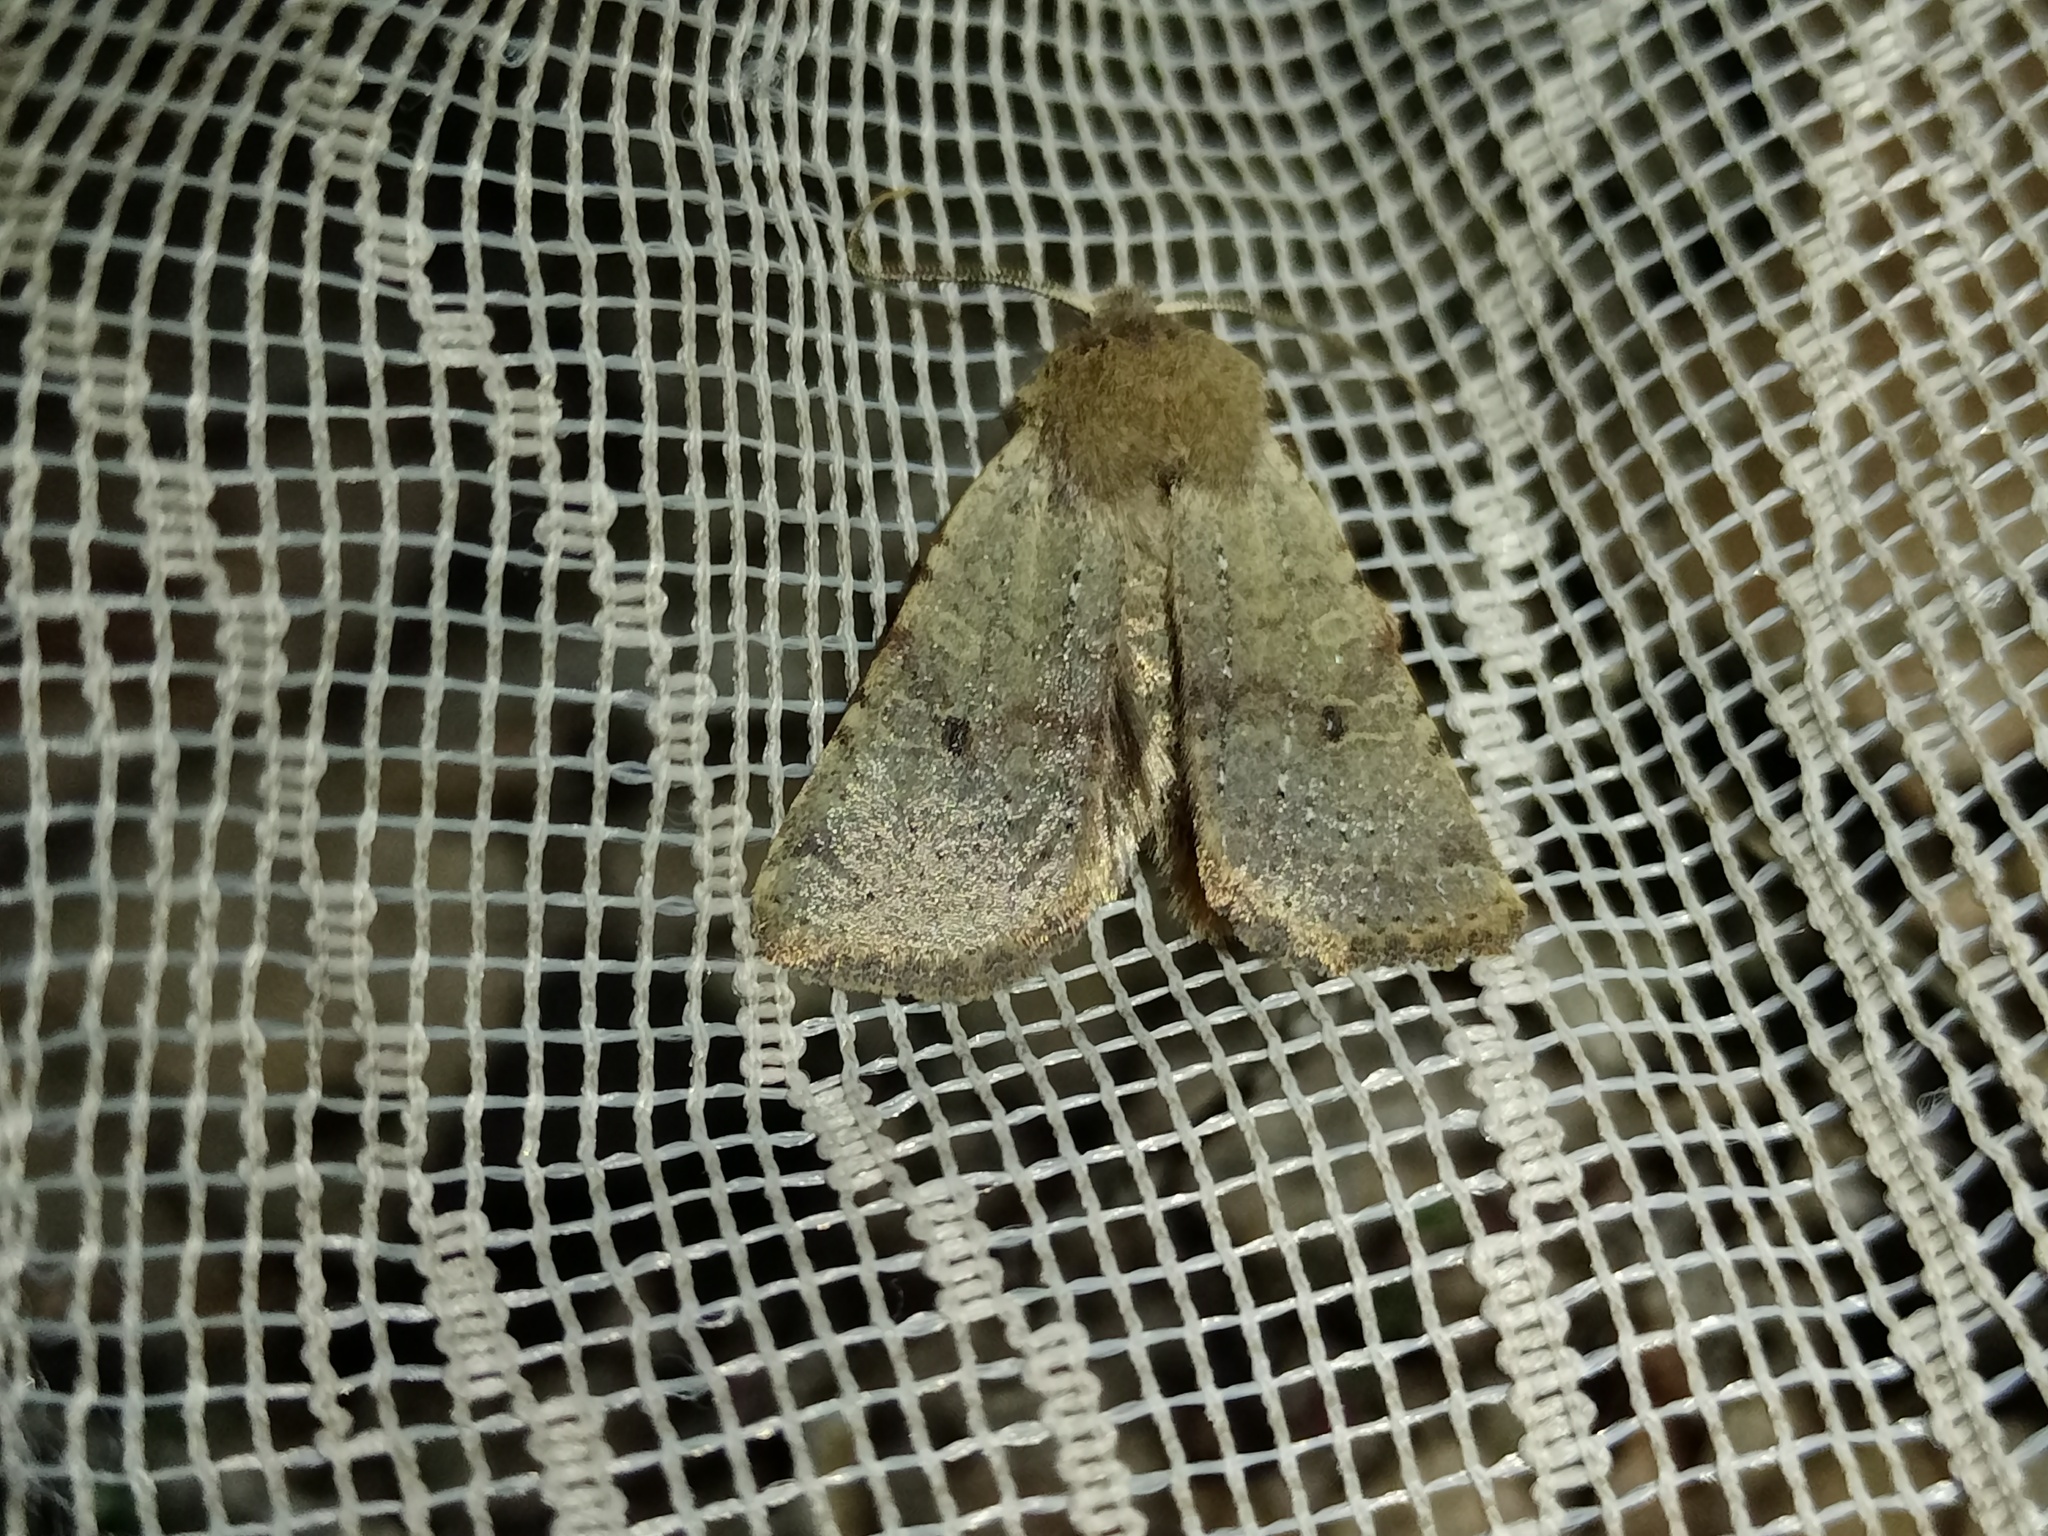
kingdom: Animalia
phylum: Arthropoda
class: Insecta
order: Lepidoptera
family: Noctuidae
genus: Agrochola
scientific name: Agrochola ruticilla
